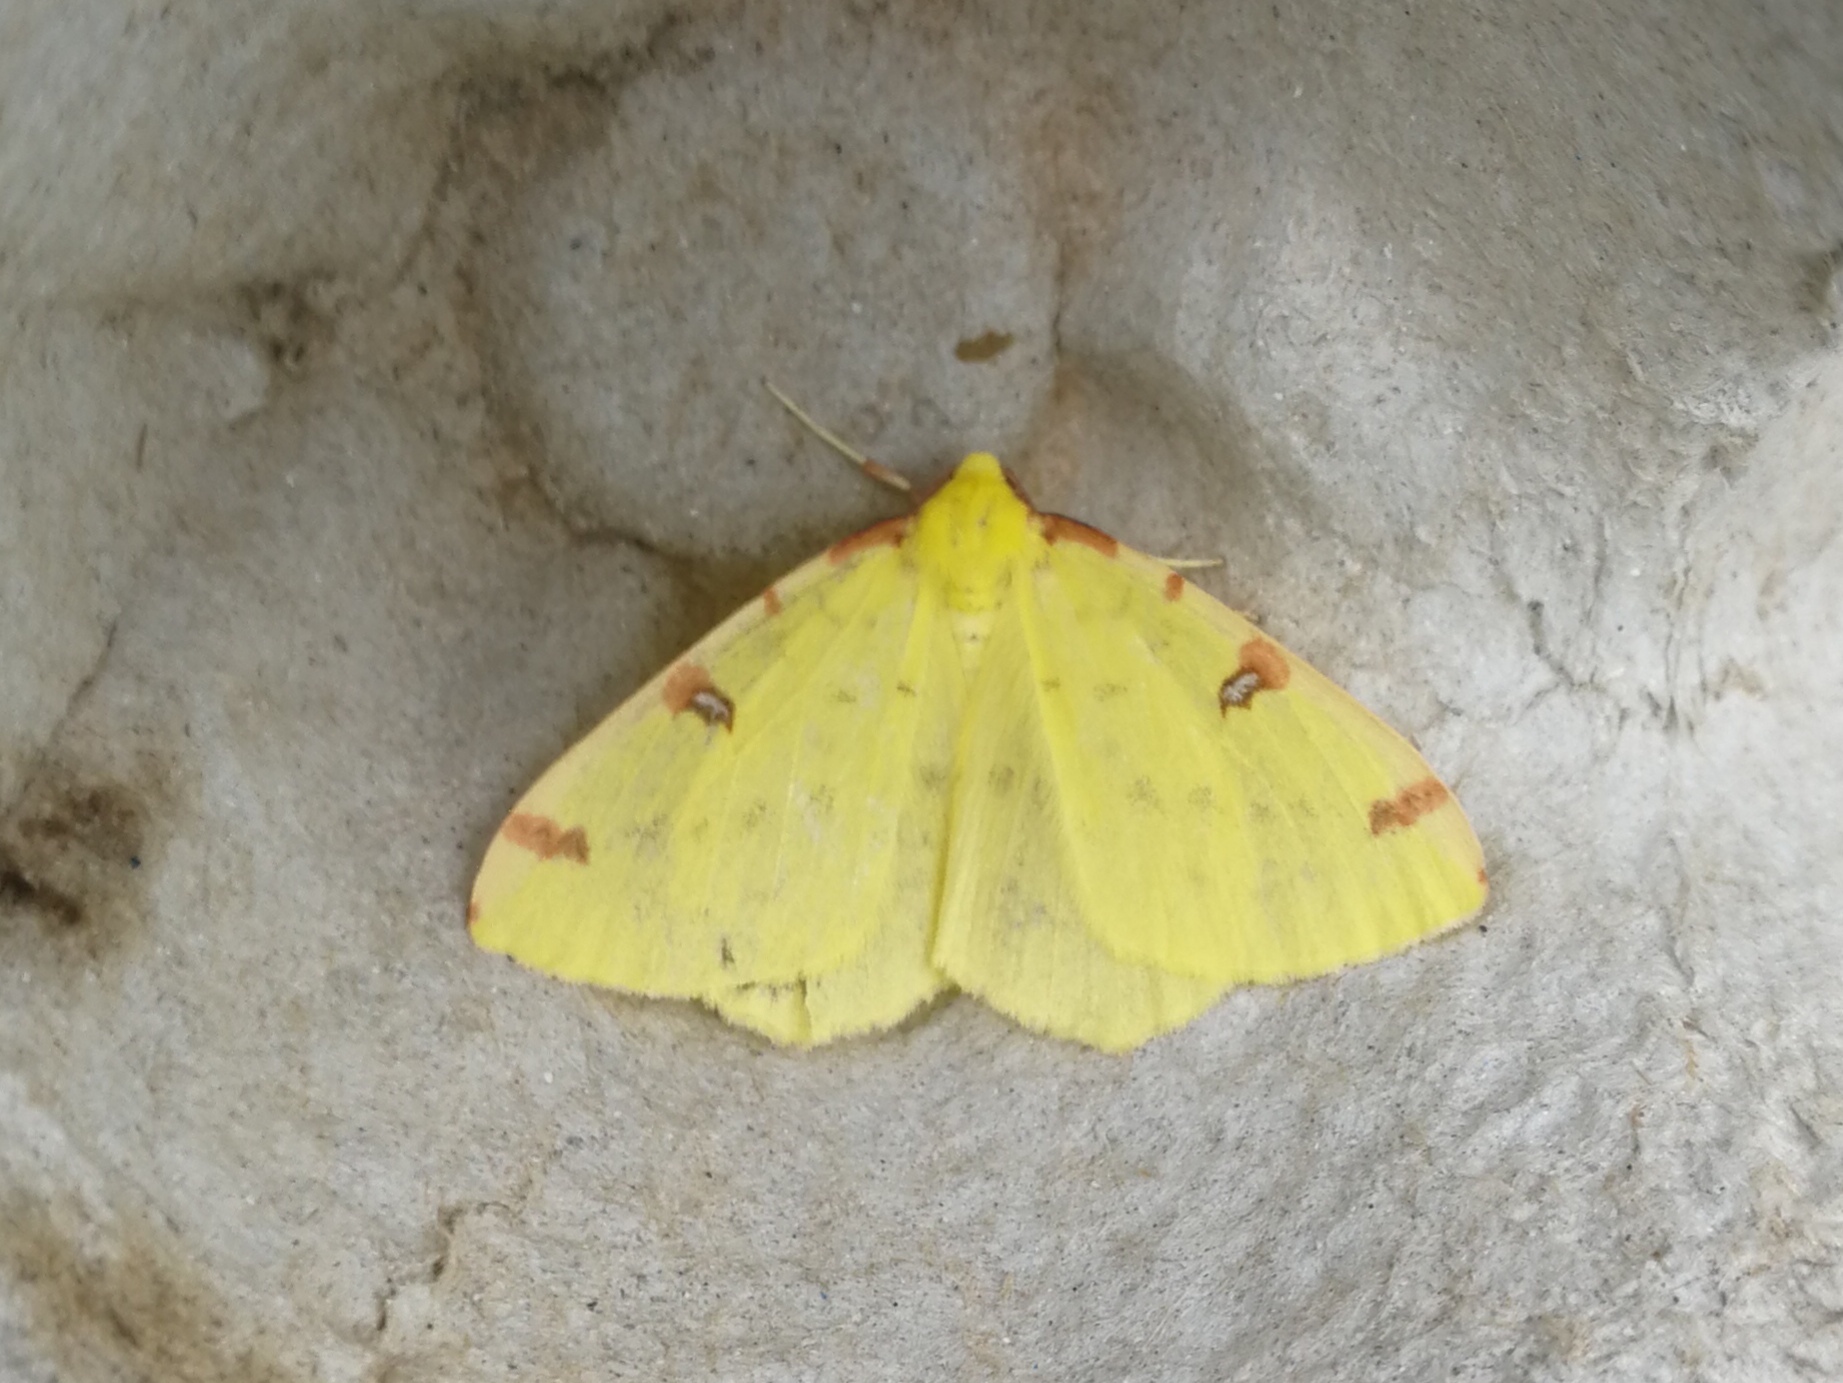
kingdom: Animalia
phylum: Arthropoda
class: Insecta
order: Lepidoptera
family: Geometridae
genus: Opisthograptis
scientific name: Opisthograptis luteolata
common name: Brimstone moth
